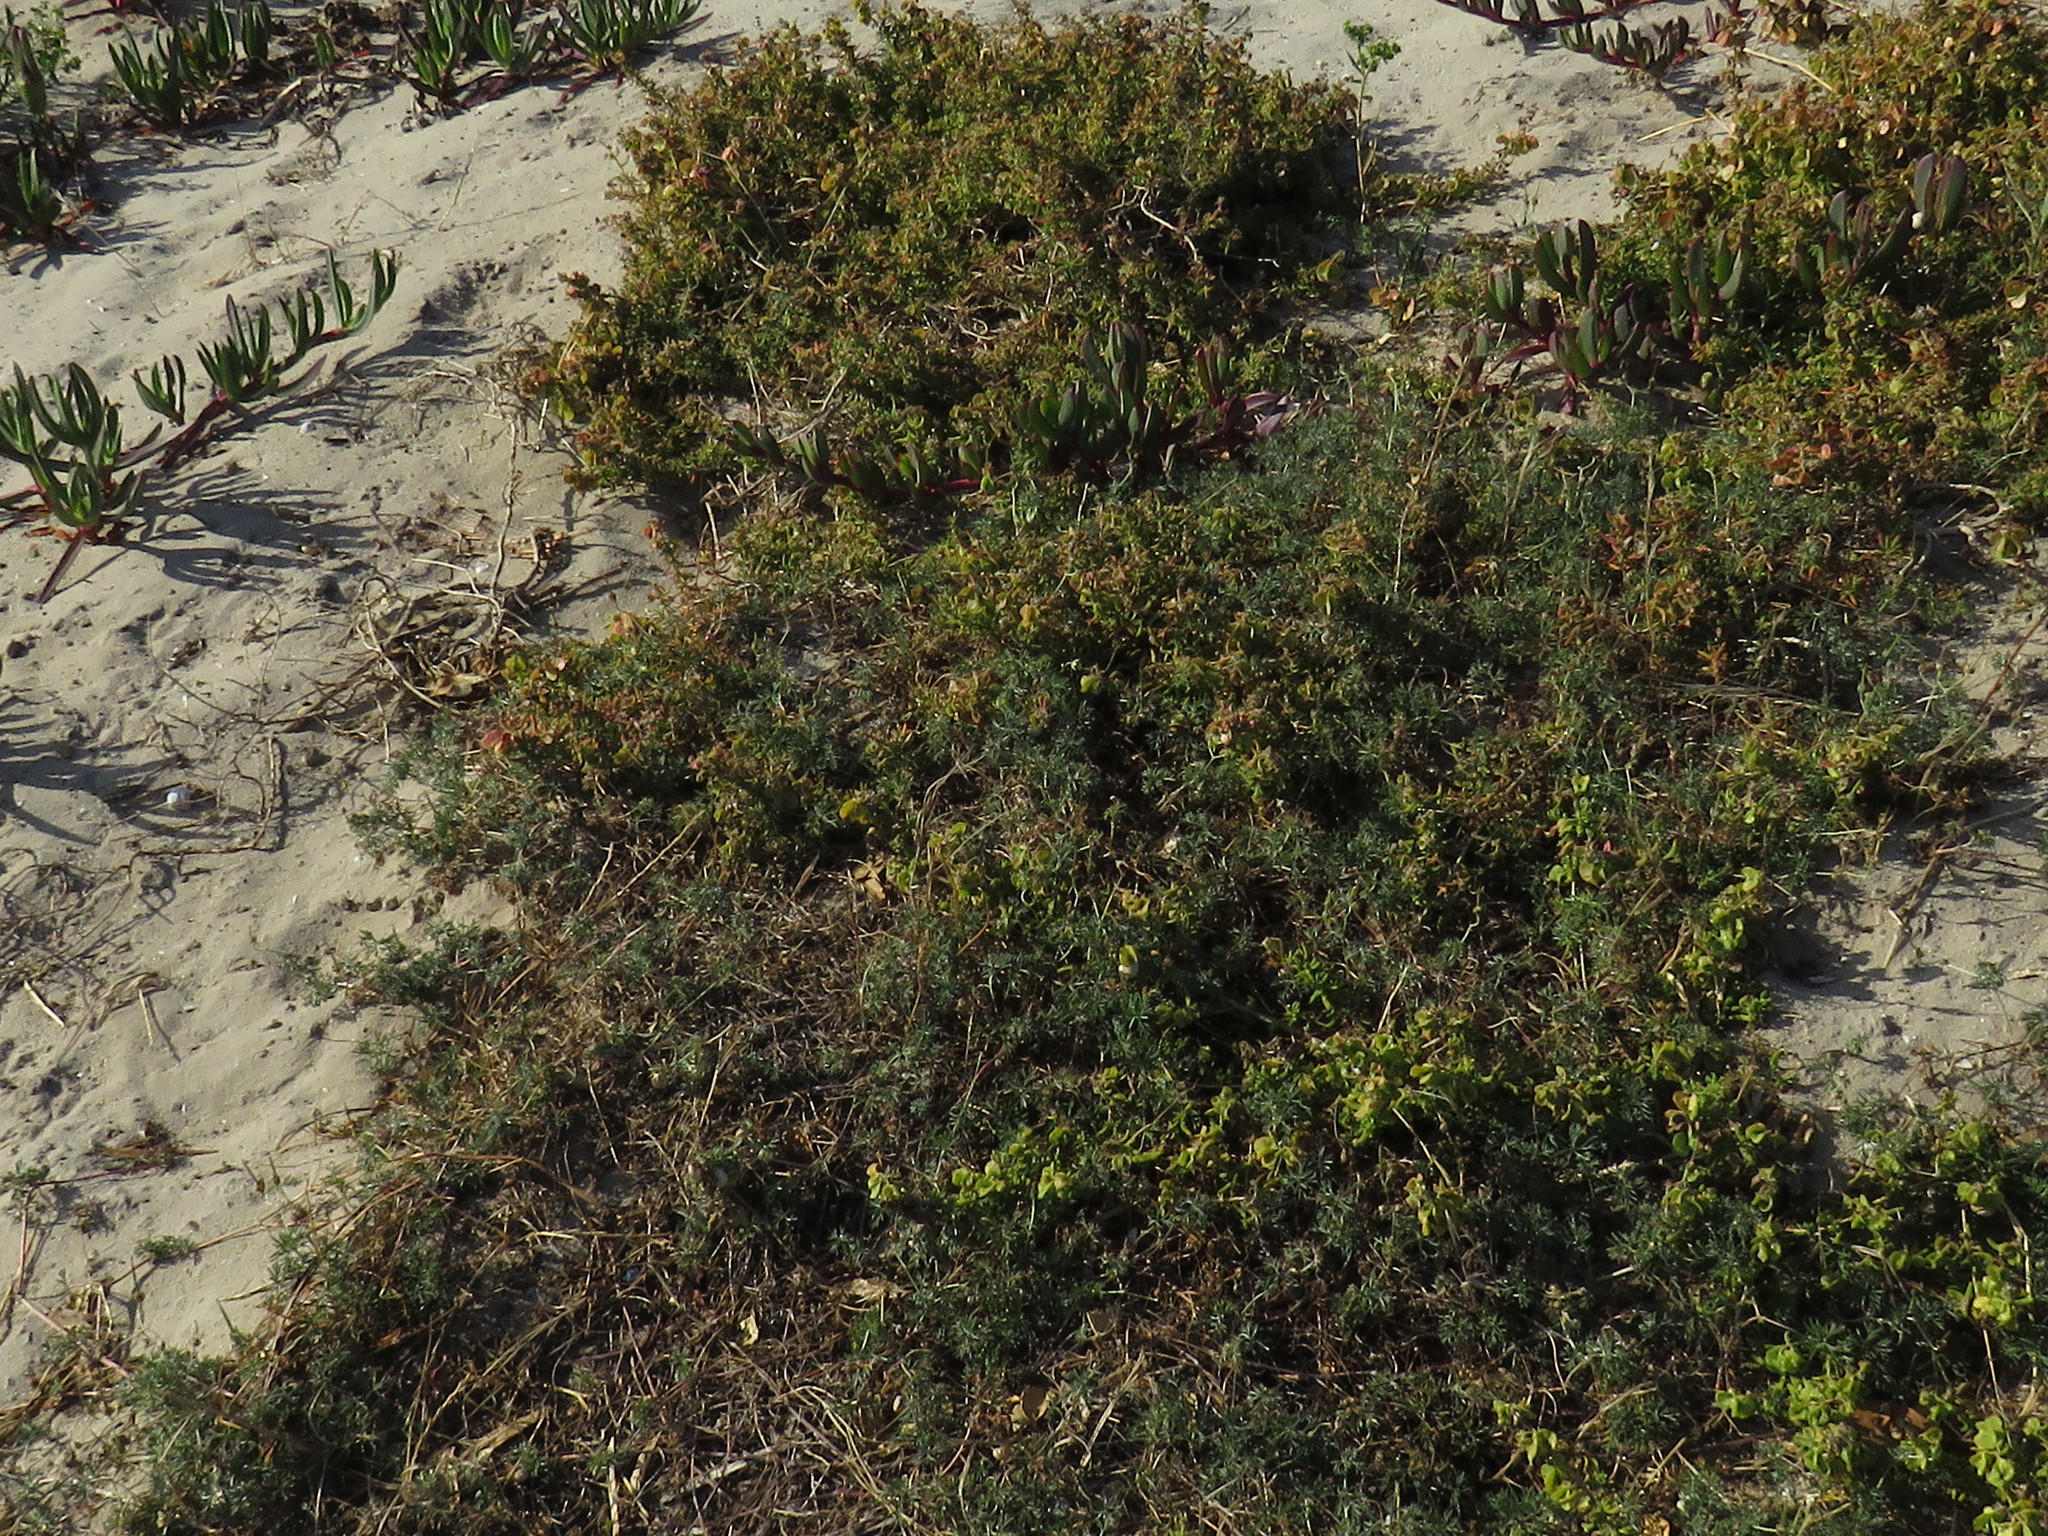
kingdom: Plantae
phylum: Tracheophyta
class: Magnoliopsida
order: Geraniales
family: Geraniaceae
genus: Geranium
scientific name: Geranium incanum
